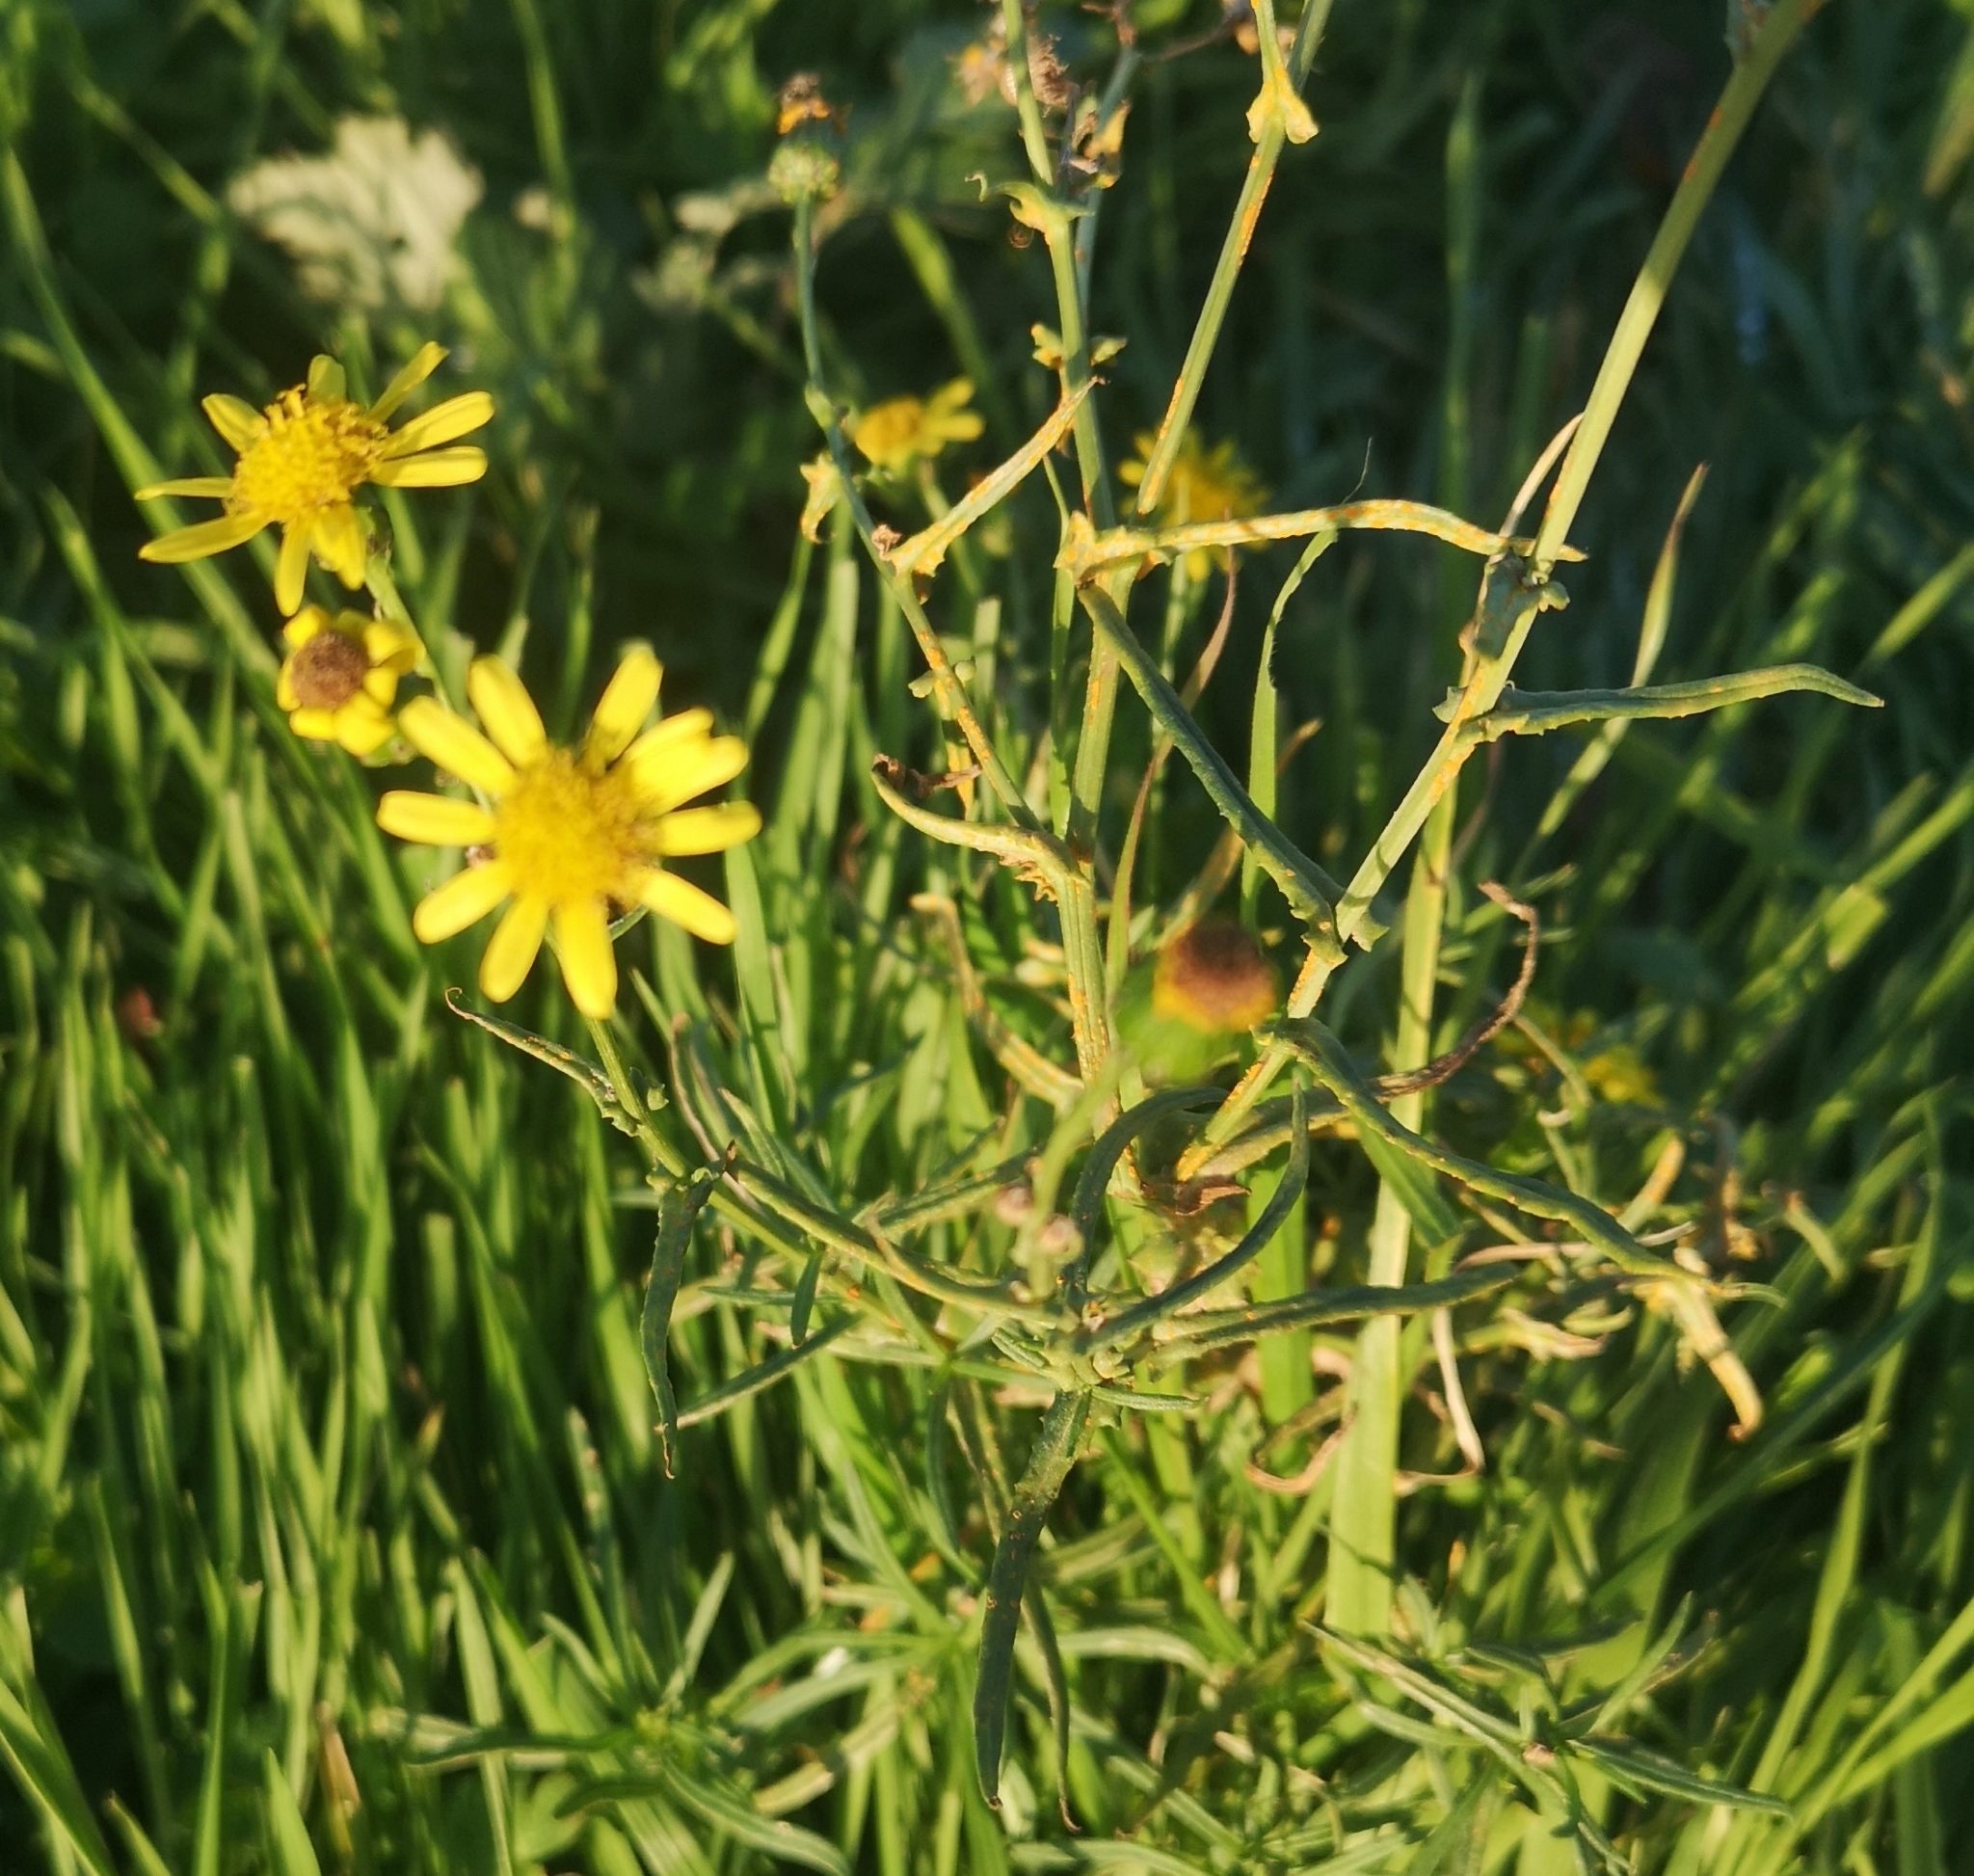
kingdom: Plantae
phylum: Tracheophyta
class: Magnoliopsida
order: Asterales
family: Asteraceae
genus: Senecio
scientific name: Senecio inaequidens
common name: Narrow-leaved ragwort
